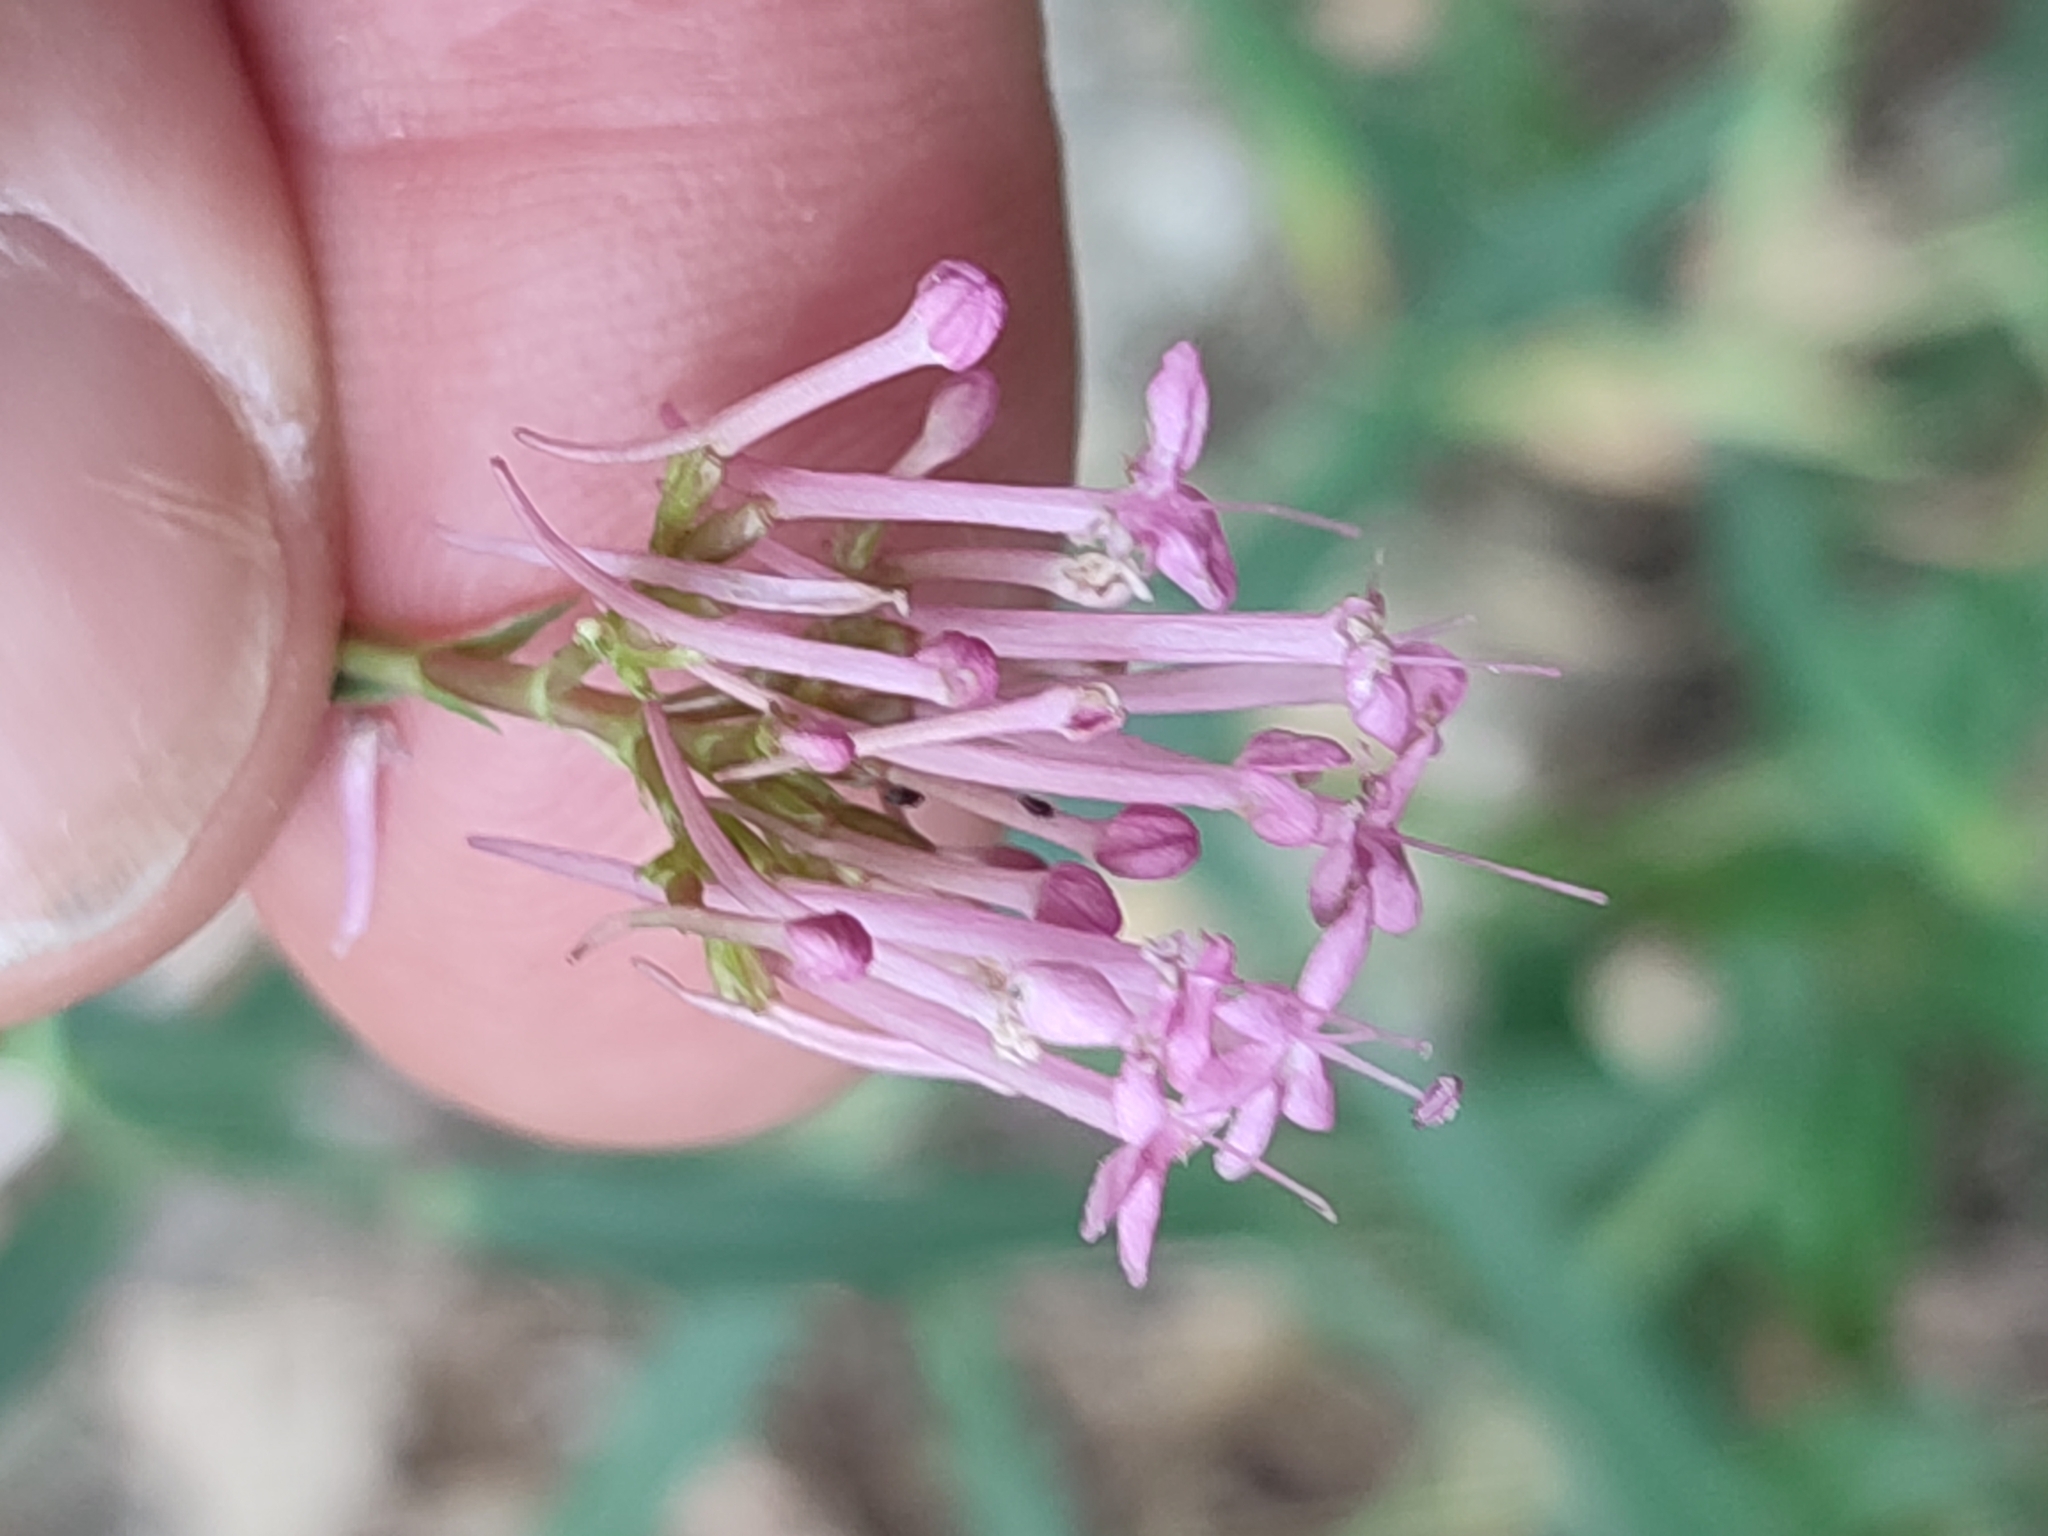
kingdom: Plantae
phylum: Tracheophyta
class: Magnoliopsida
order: Dipsacales
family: Caprifoliaceae
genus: Centranthus
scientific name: Centranthus lecoqii
